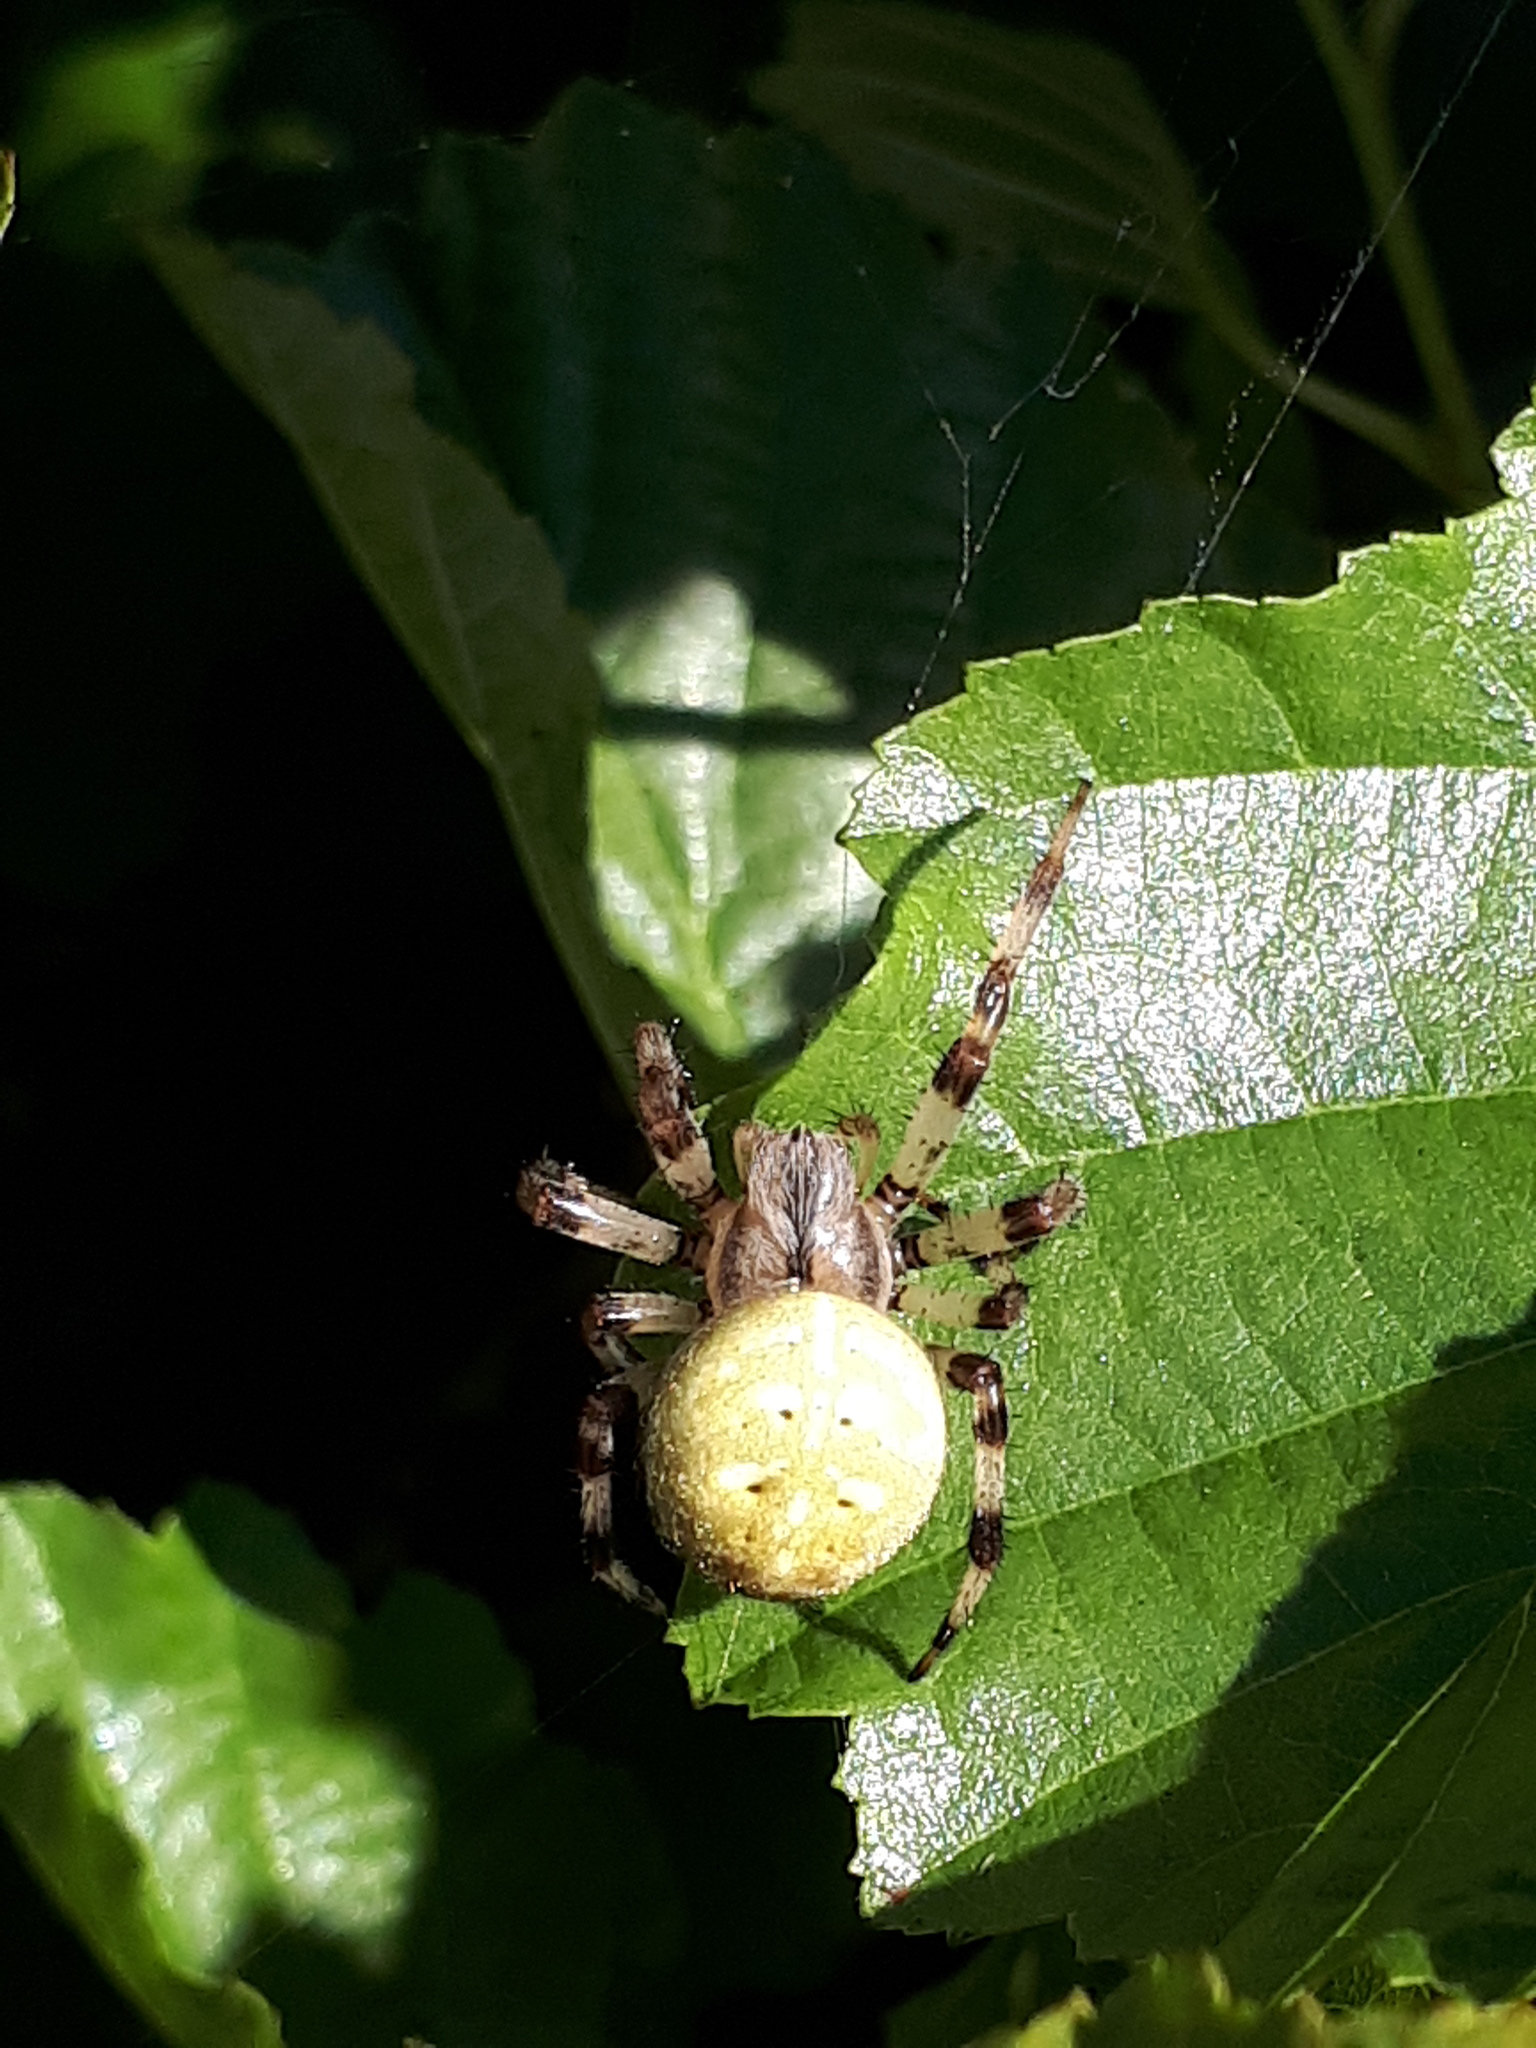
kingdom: Animalia
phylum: Arthropoda
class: Arachnida
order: Araneae
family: Araneidae
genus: Araneus
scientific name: Araneus quadratus
